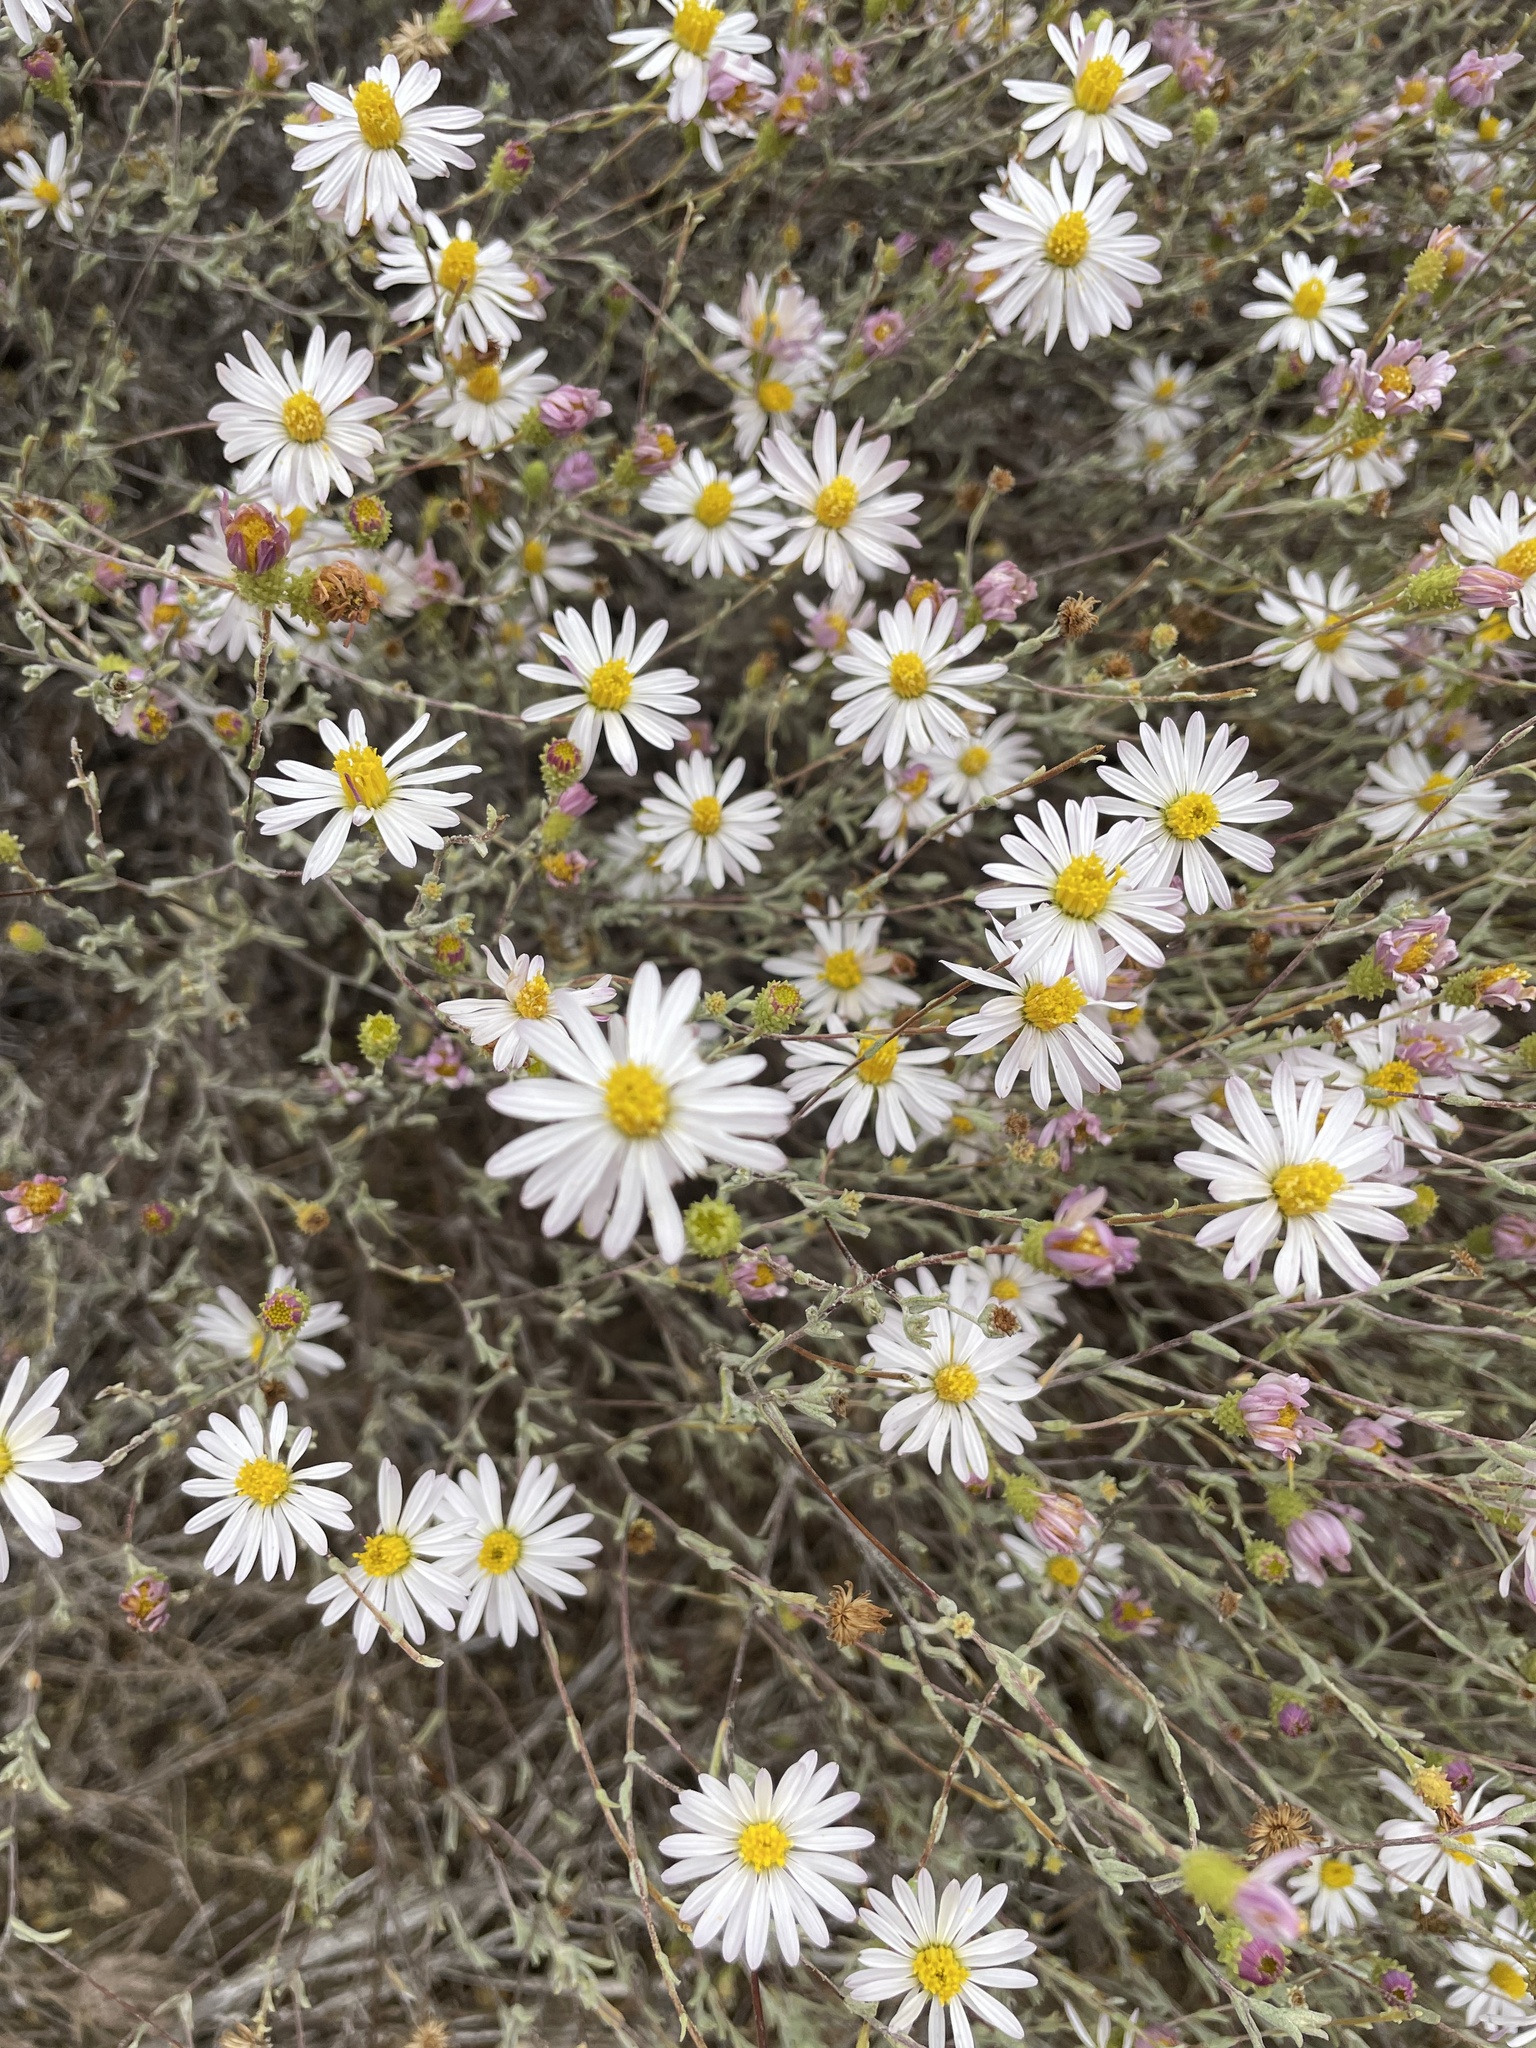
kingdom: Plantae
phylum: Tracheophyta
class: Magnoliopsida
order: Asterales
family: Asteraceae
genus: Corethrogyne
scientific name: Corethrogyne filaginifolia
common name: Sand-aster
